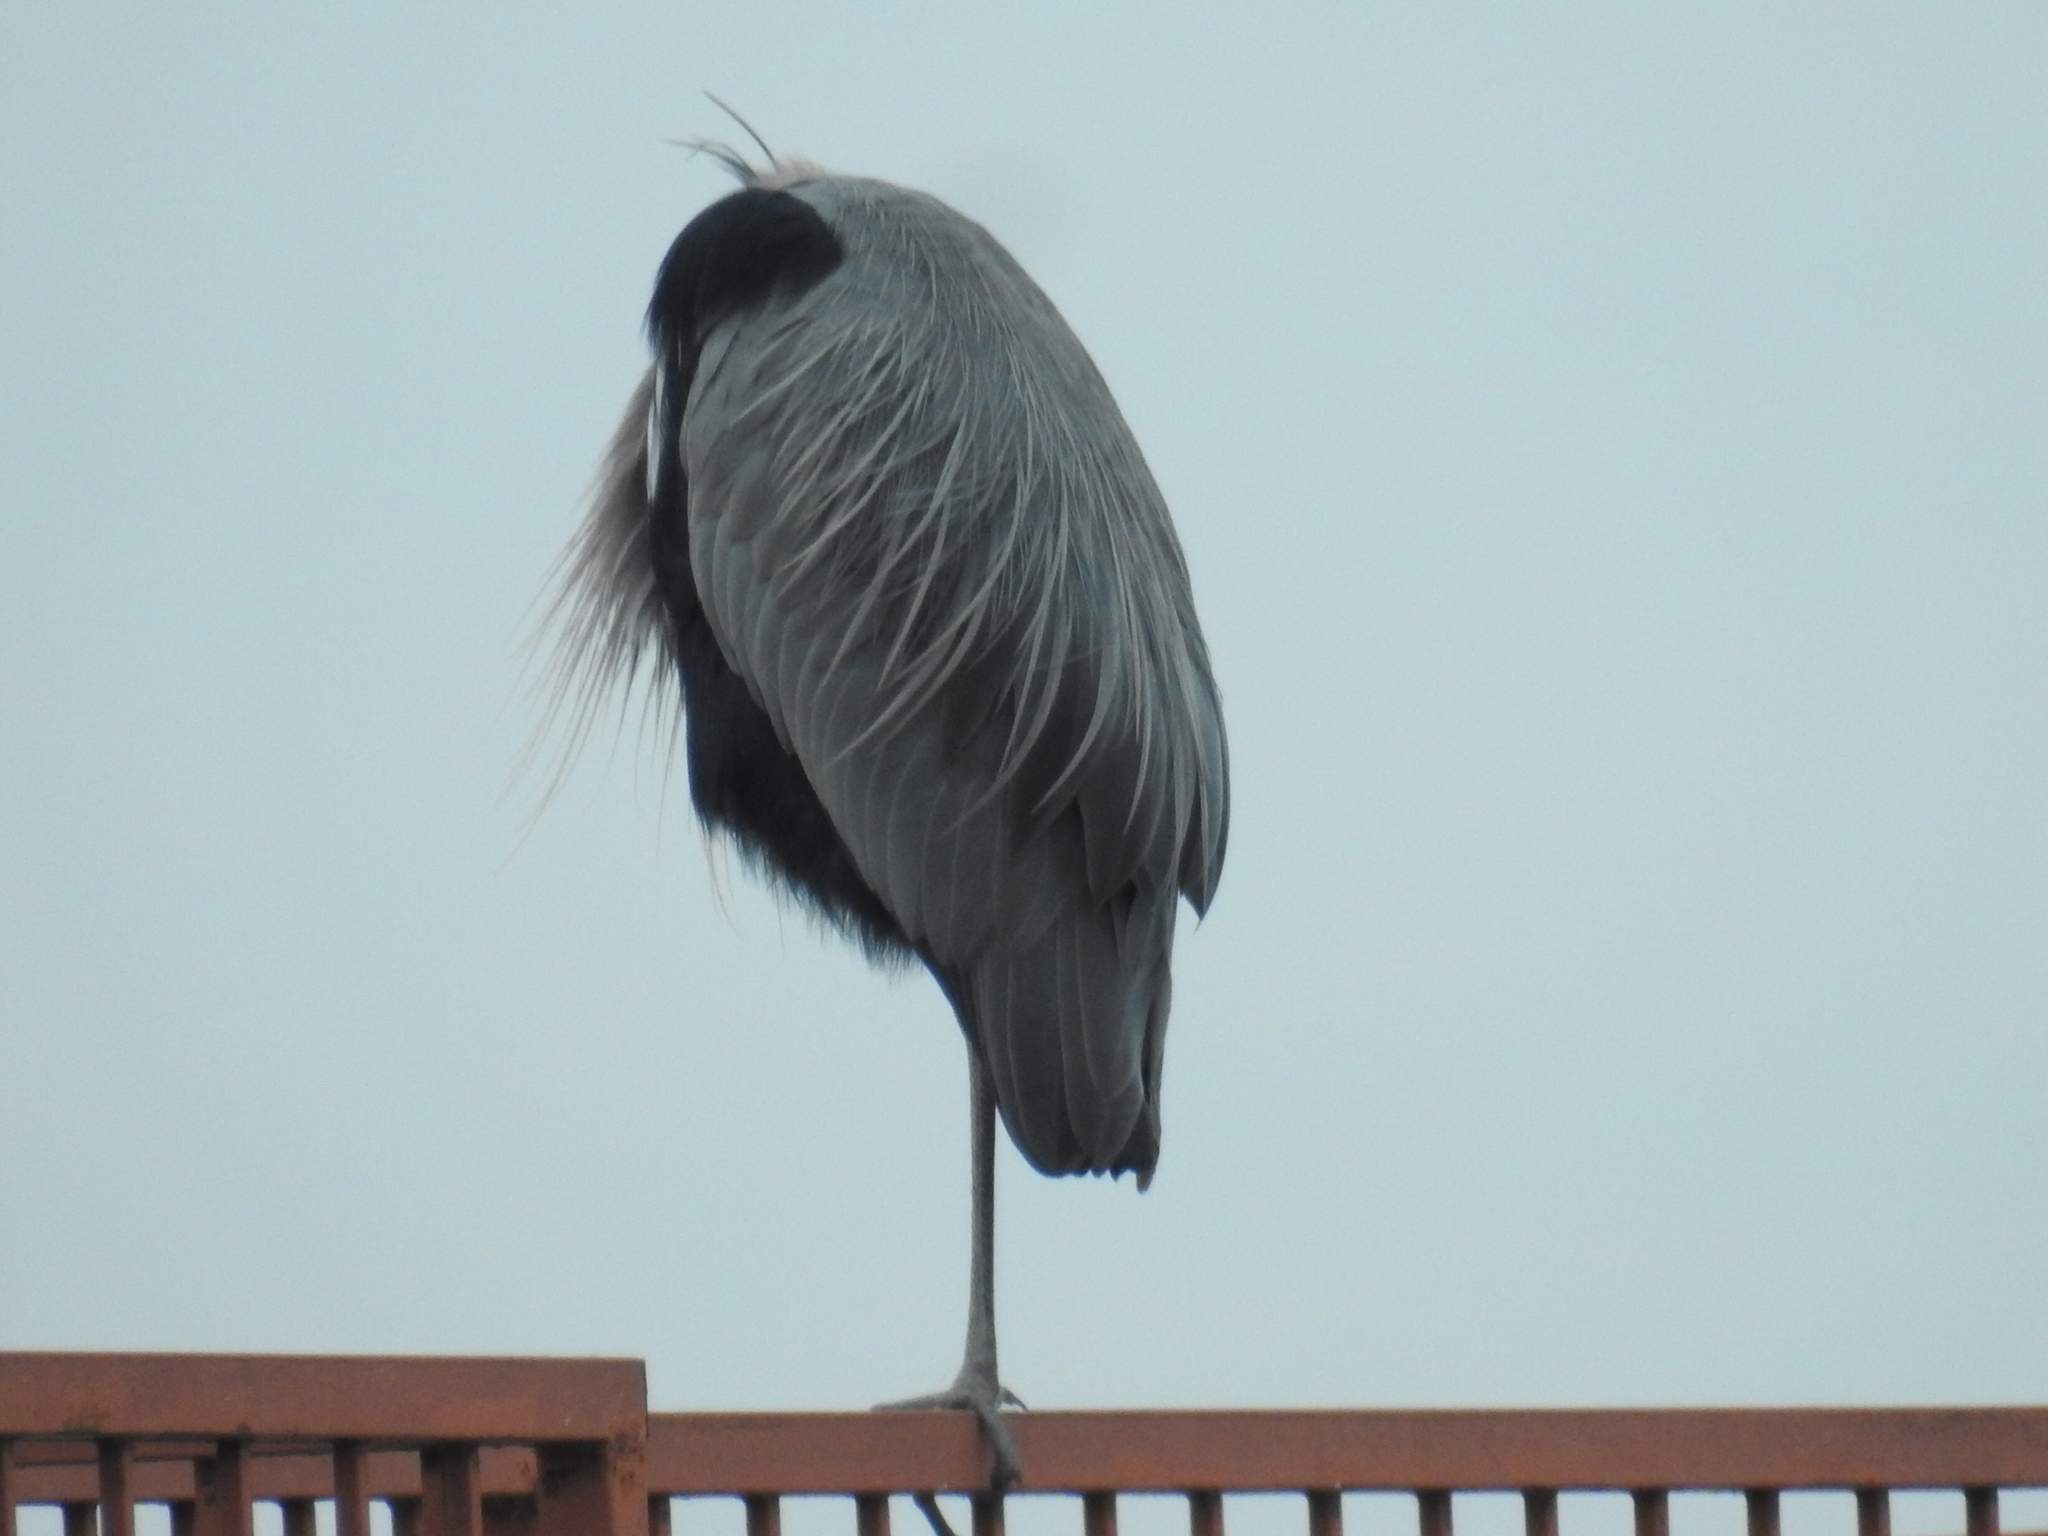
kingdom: Animalia
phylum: Chordata
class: Aves
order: Pelecaniformes
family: Ardeidae
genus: Ardea
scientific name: Ardea herodias
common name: Great blue heron
